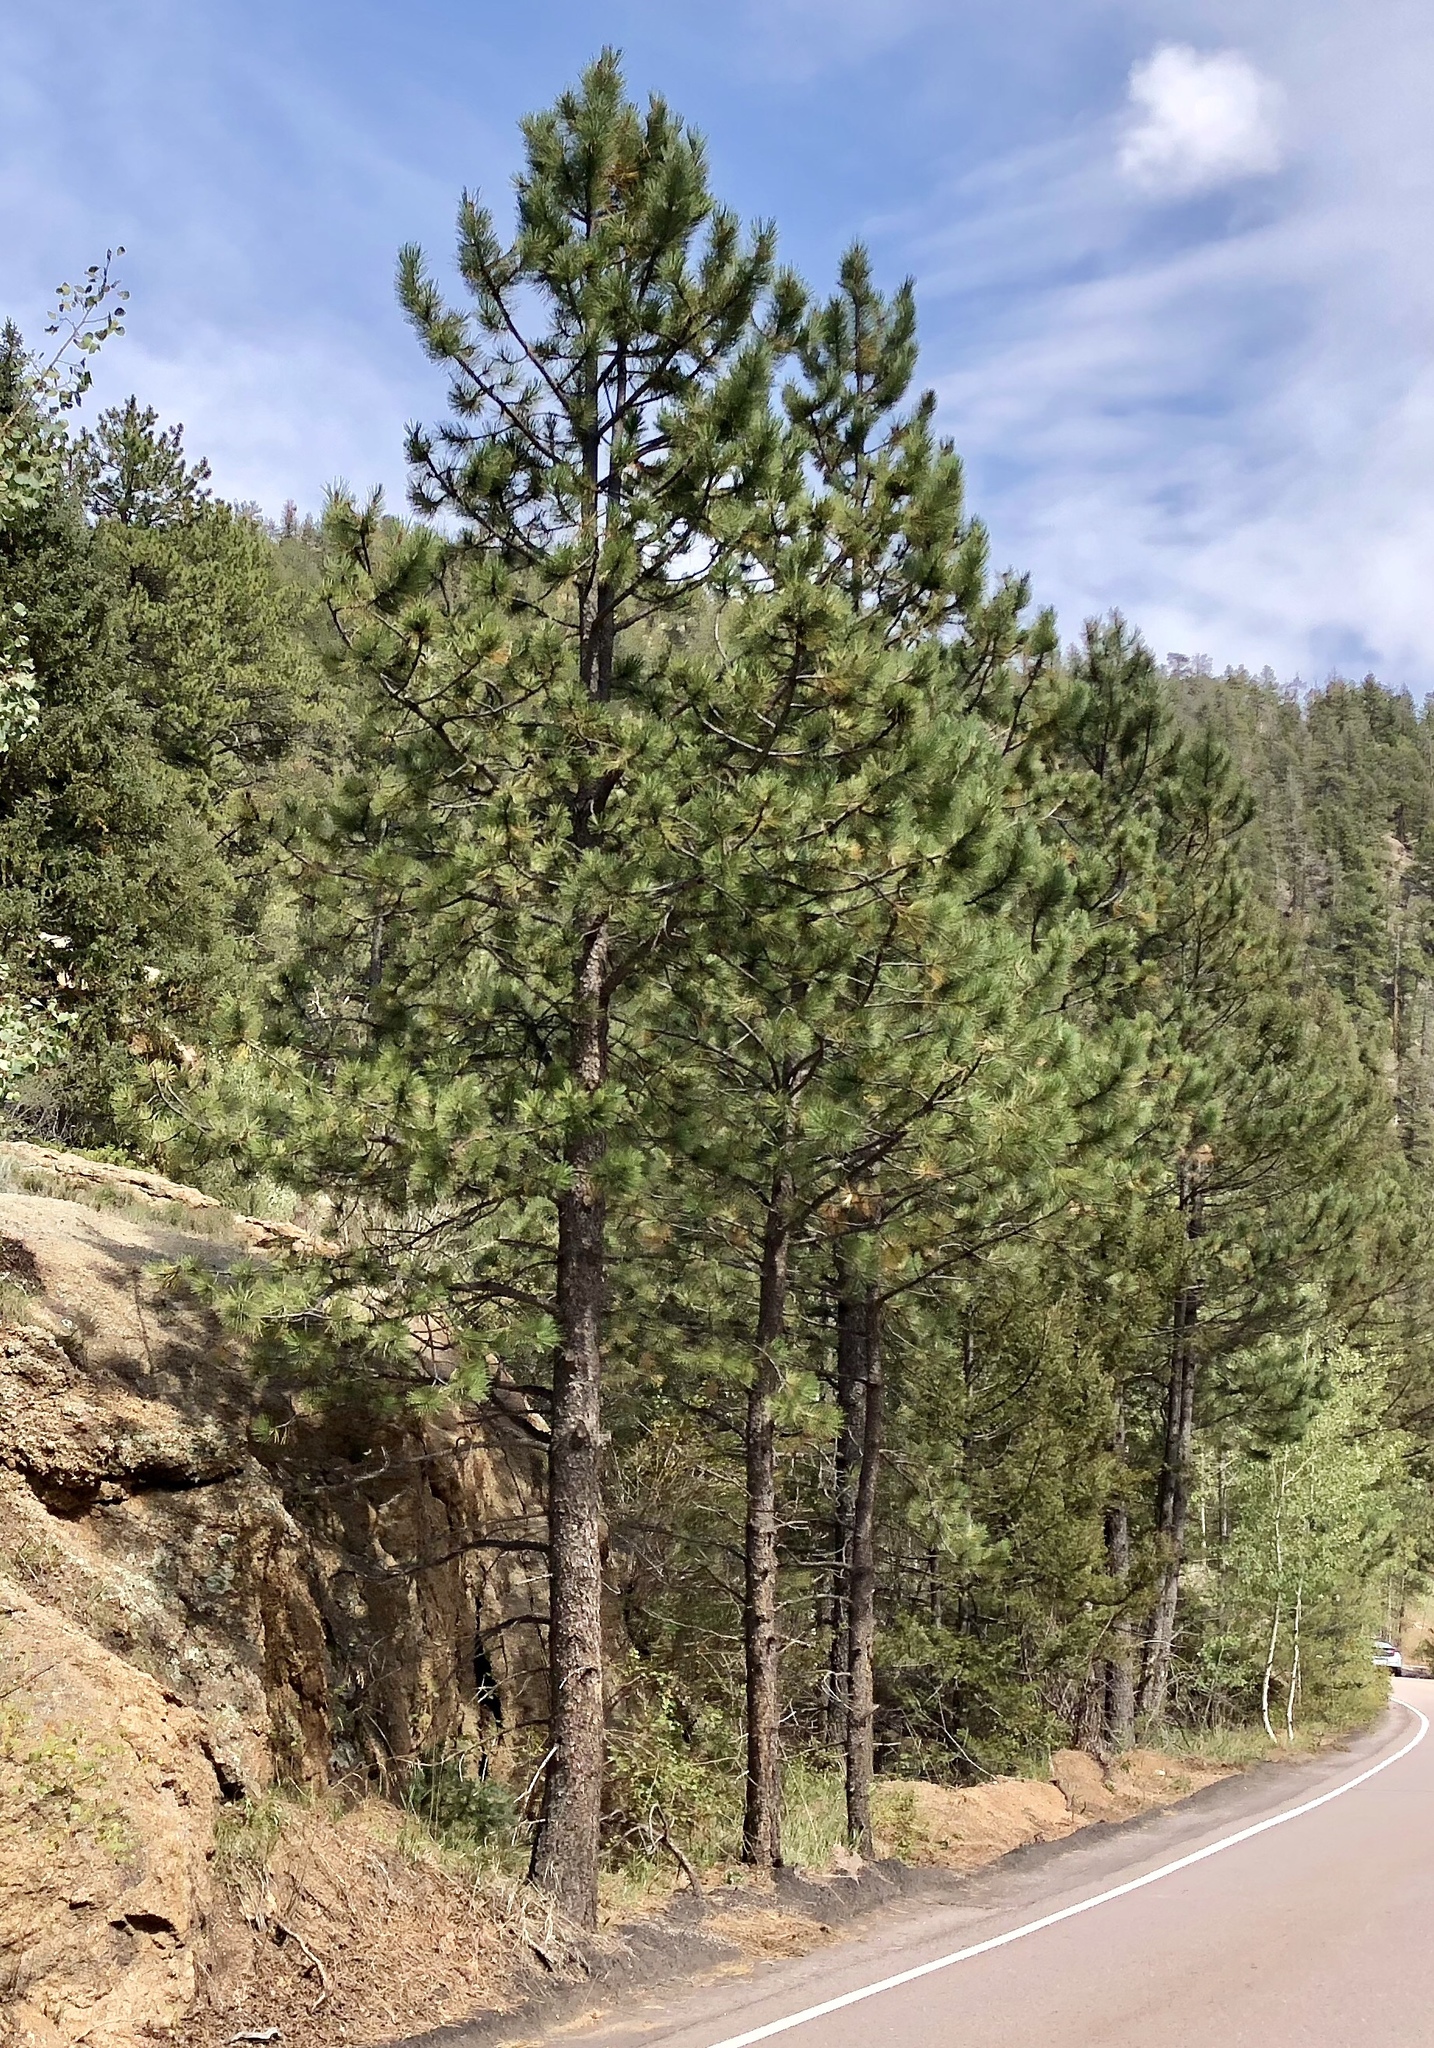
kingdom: Plantae
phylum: Tracheophyta
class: Pinopsida
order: Pinales
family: Pinaceae
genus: Pinus
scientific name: Pinus ponderosa
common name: Western yellow-pine
